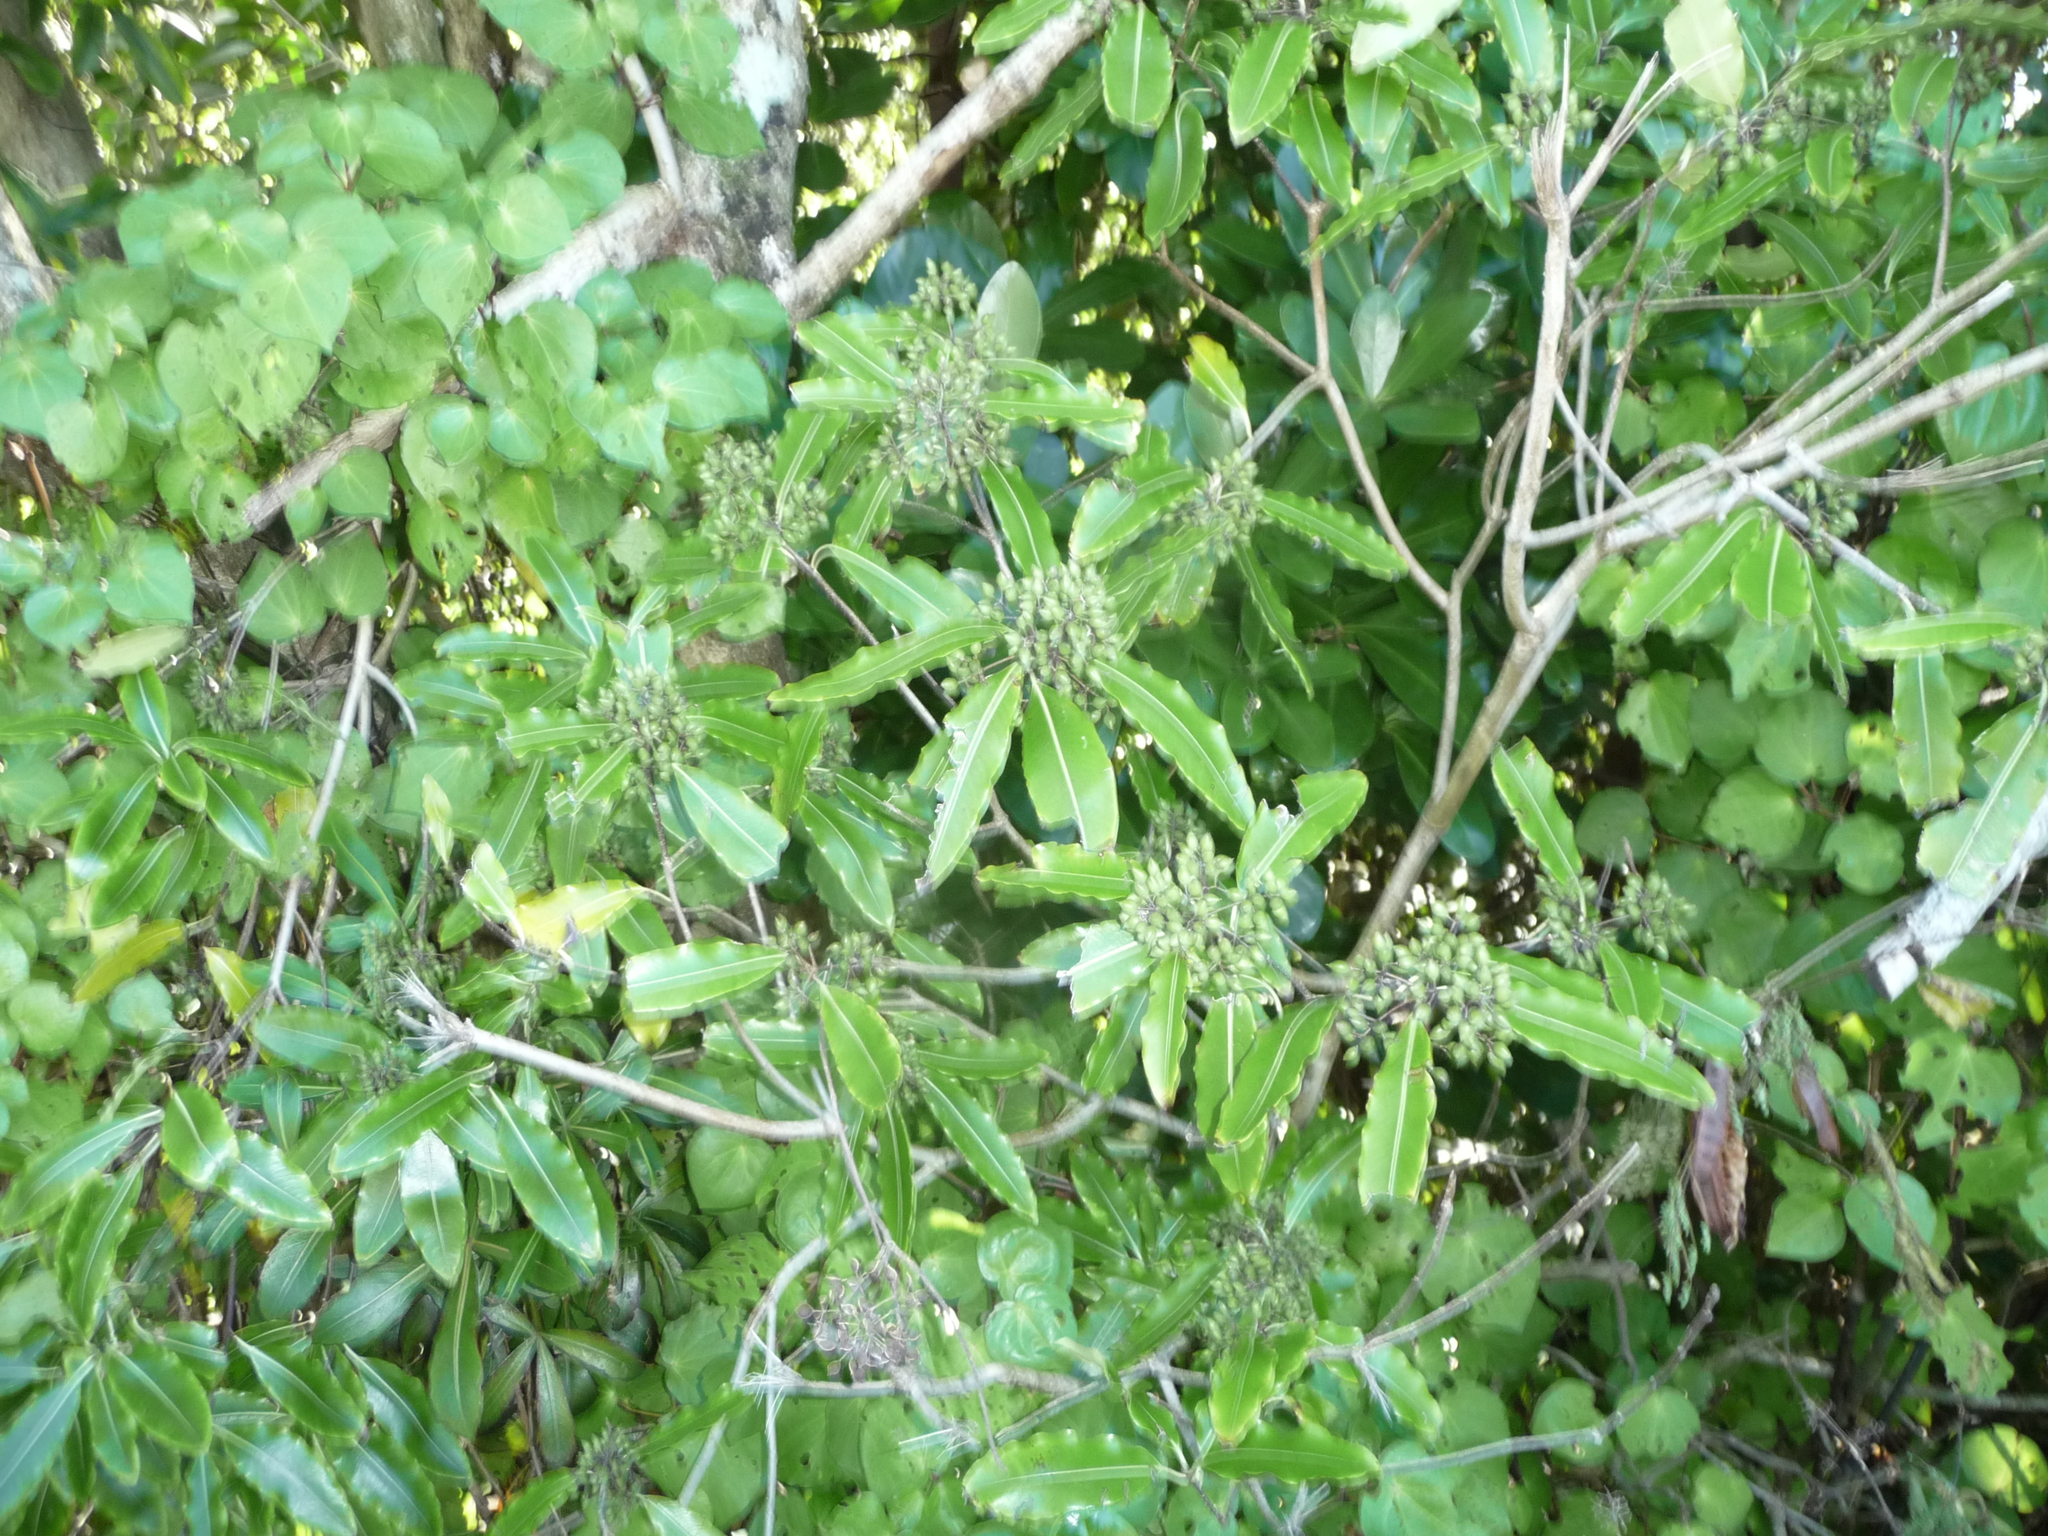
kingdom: Plantae
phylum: Tracheophyta
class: Magnoliopsida
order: Apiales
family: Pittosporaceae
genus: Pittosporum
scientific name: Pittosporum eugenioides
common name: Lemonwood
